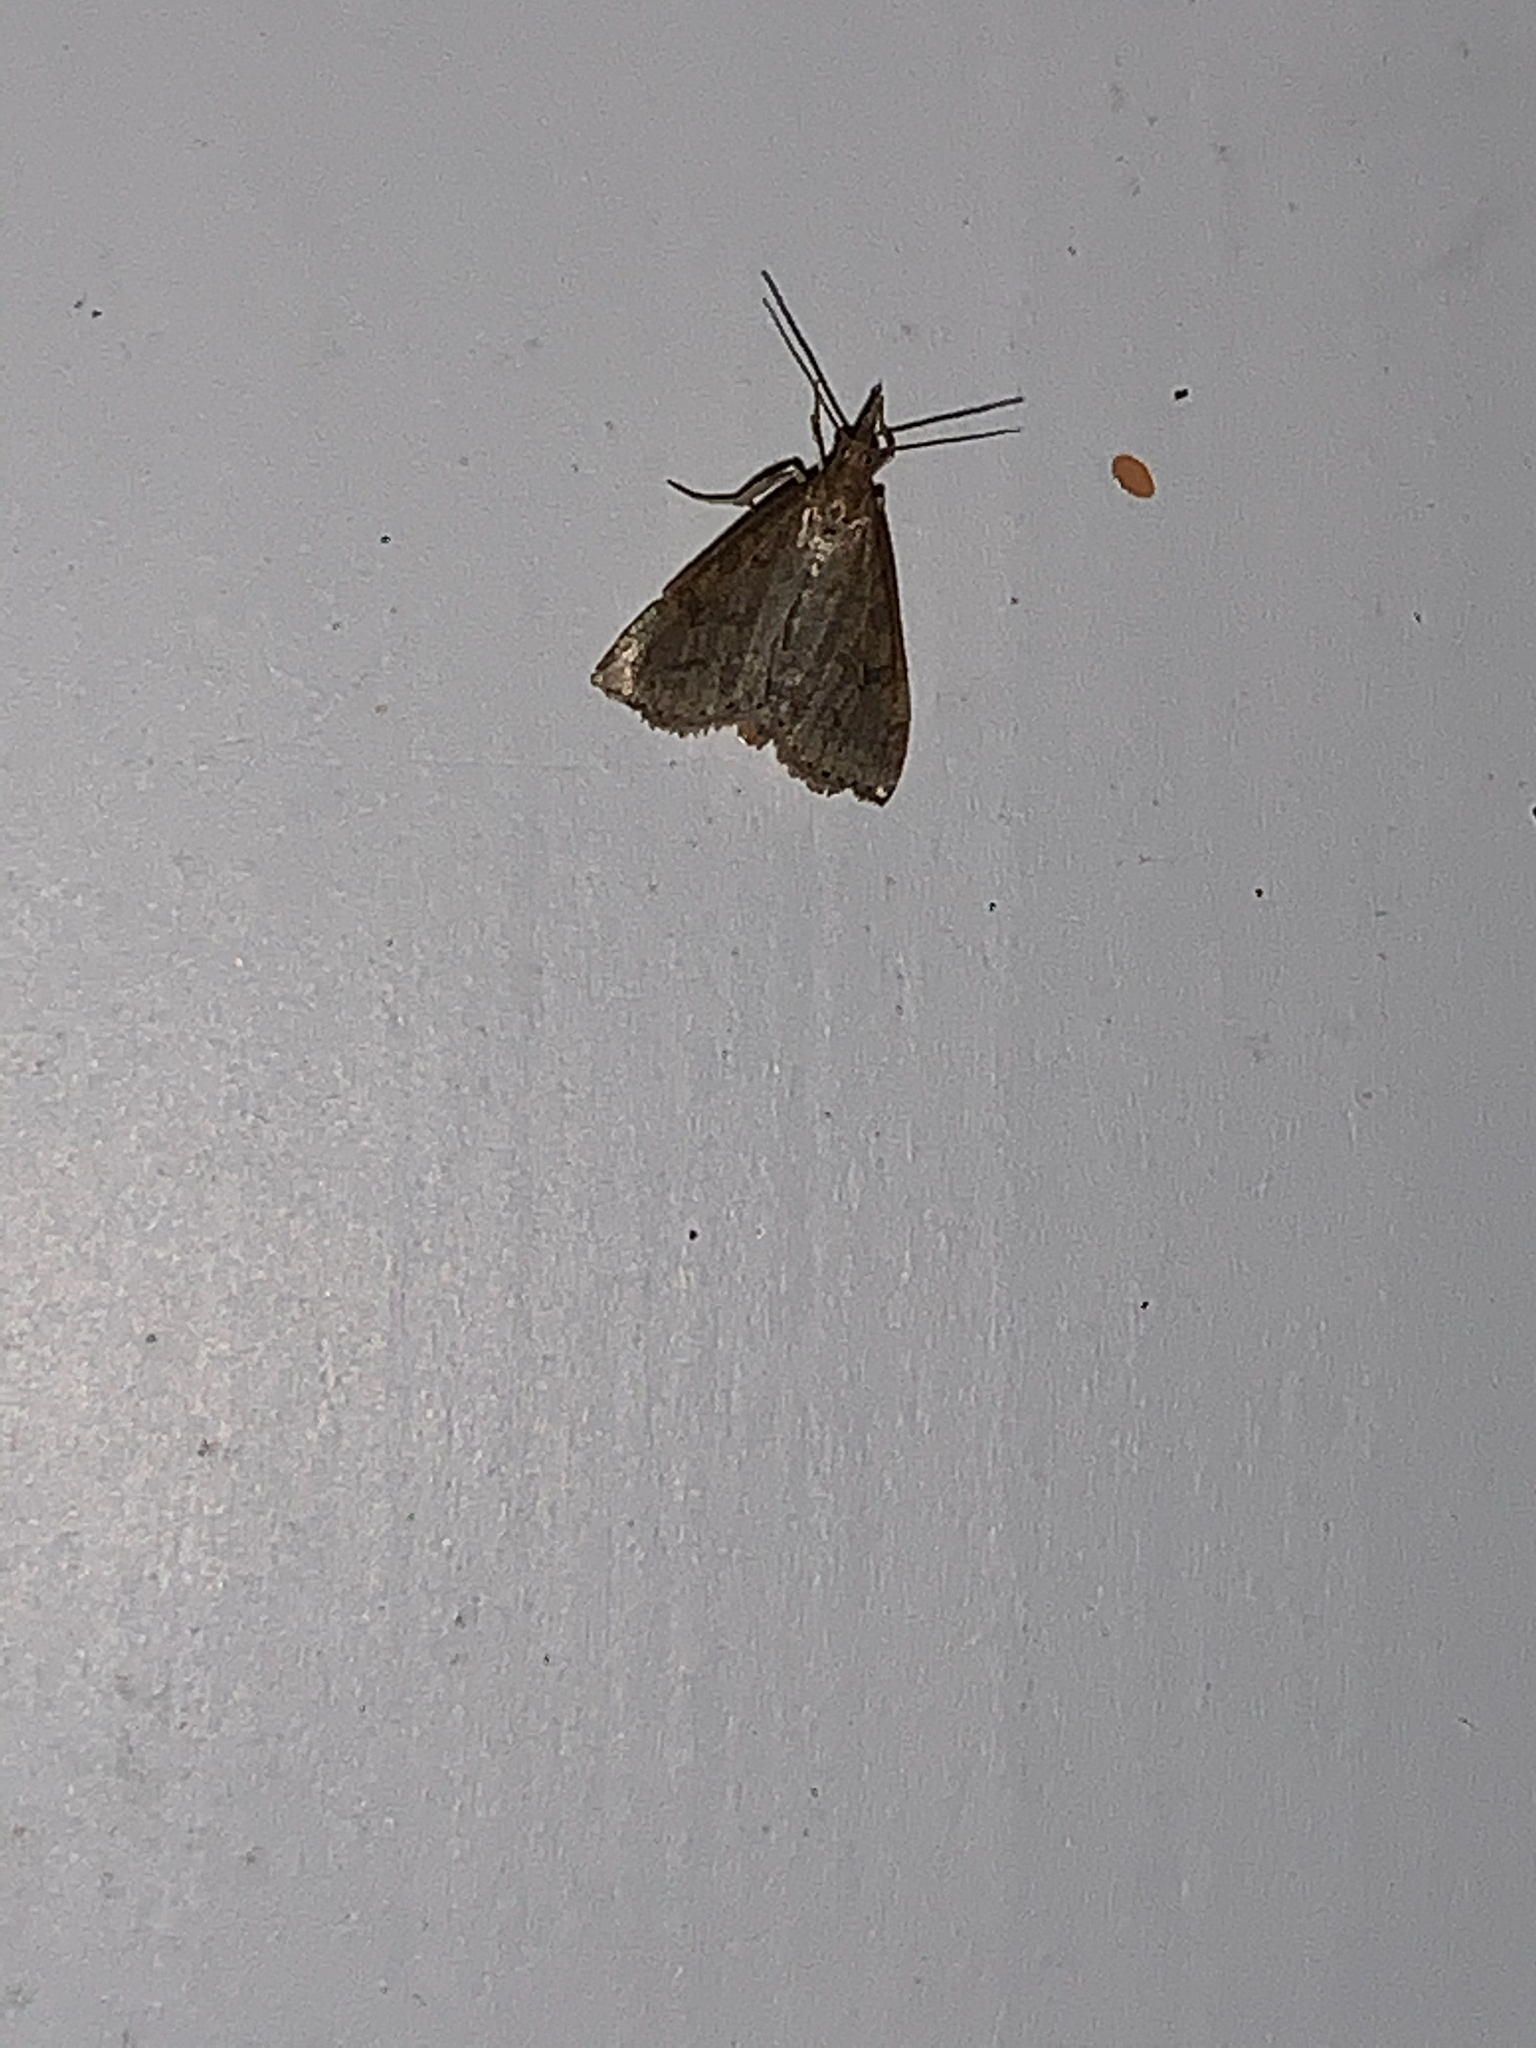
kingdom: Animalia
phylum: Arthropoda
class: Insecta
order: Lepidoptera
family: Crambidae
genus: Udea
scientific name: Udea rubigalis
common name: Celery leaftier moth
